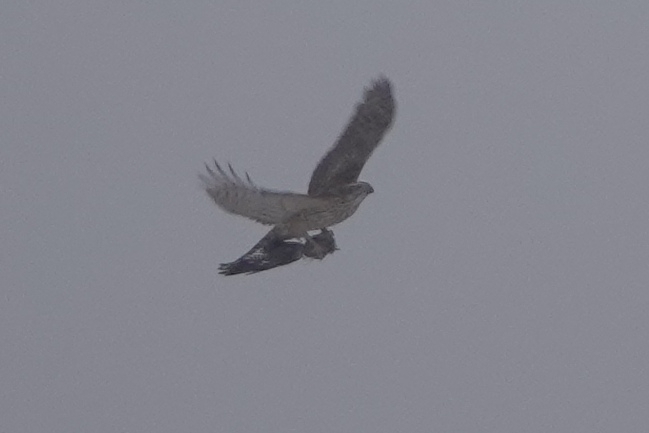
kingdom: Animalia
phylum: Chordata
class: Aves
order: Accipitriformes
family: Accipitridae
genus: Accipiter
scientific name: Accipiter gentilis
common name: Northern goshawk
